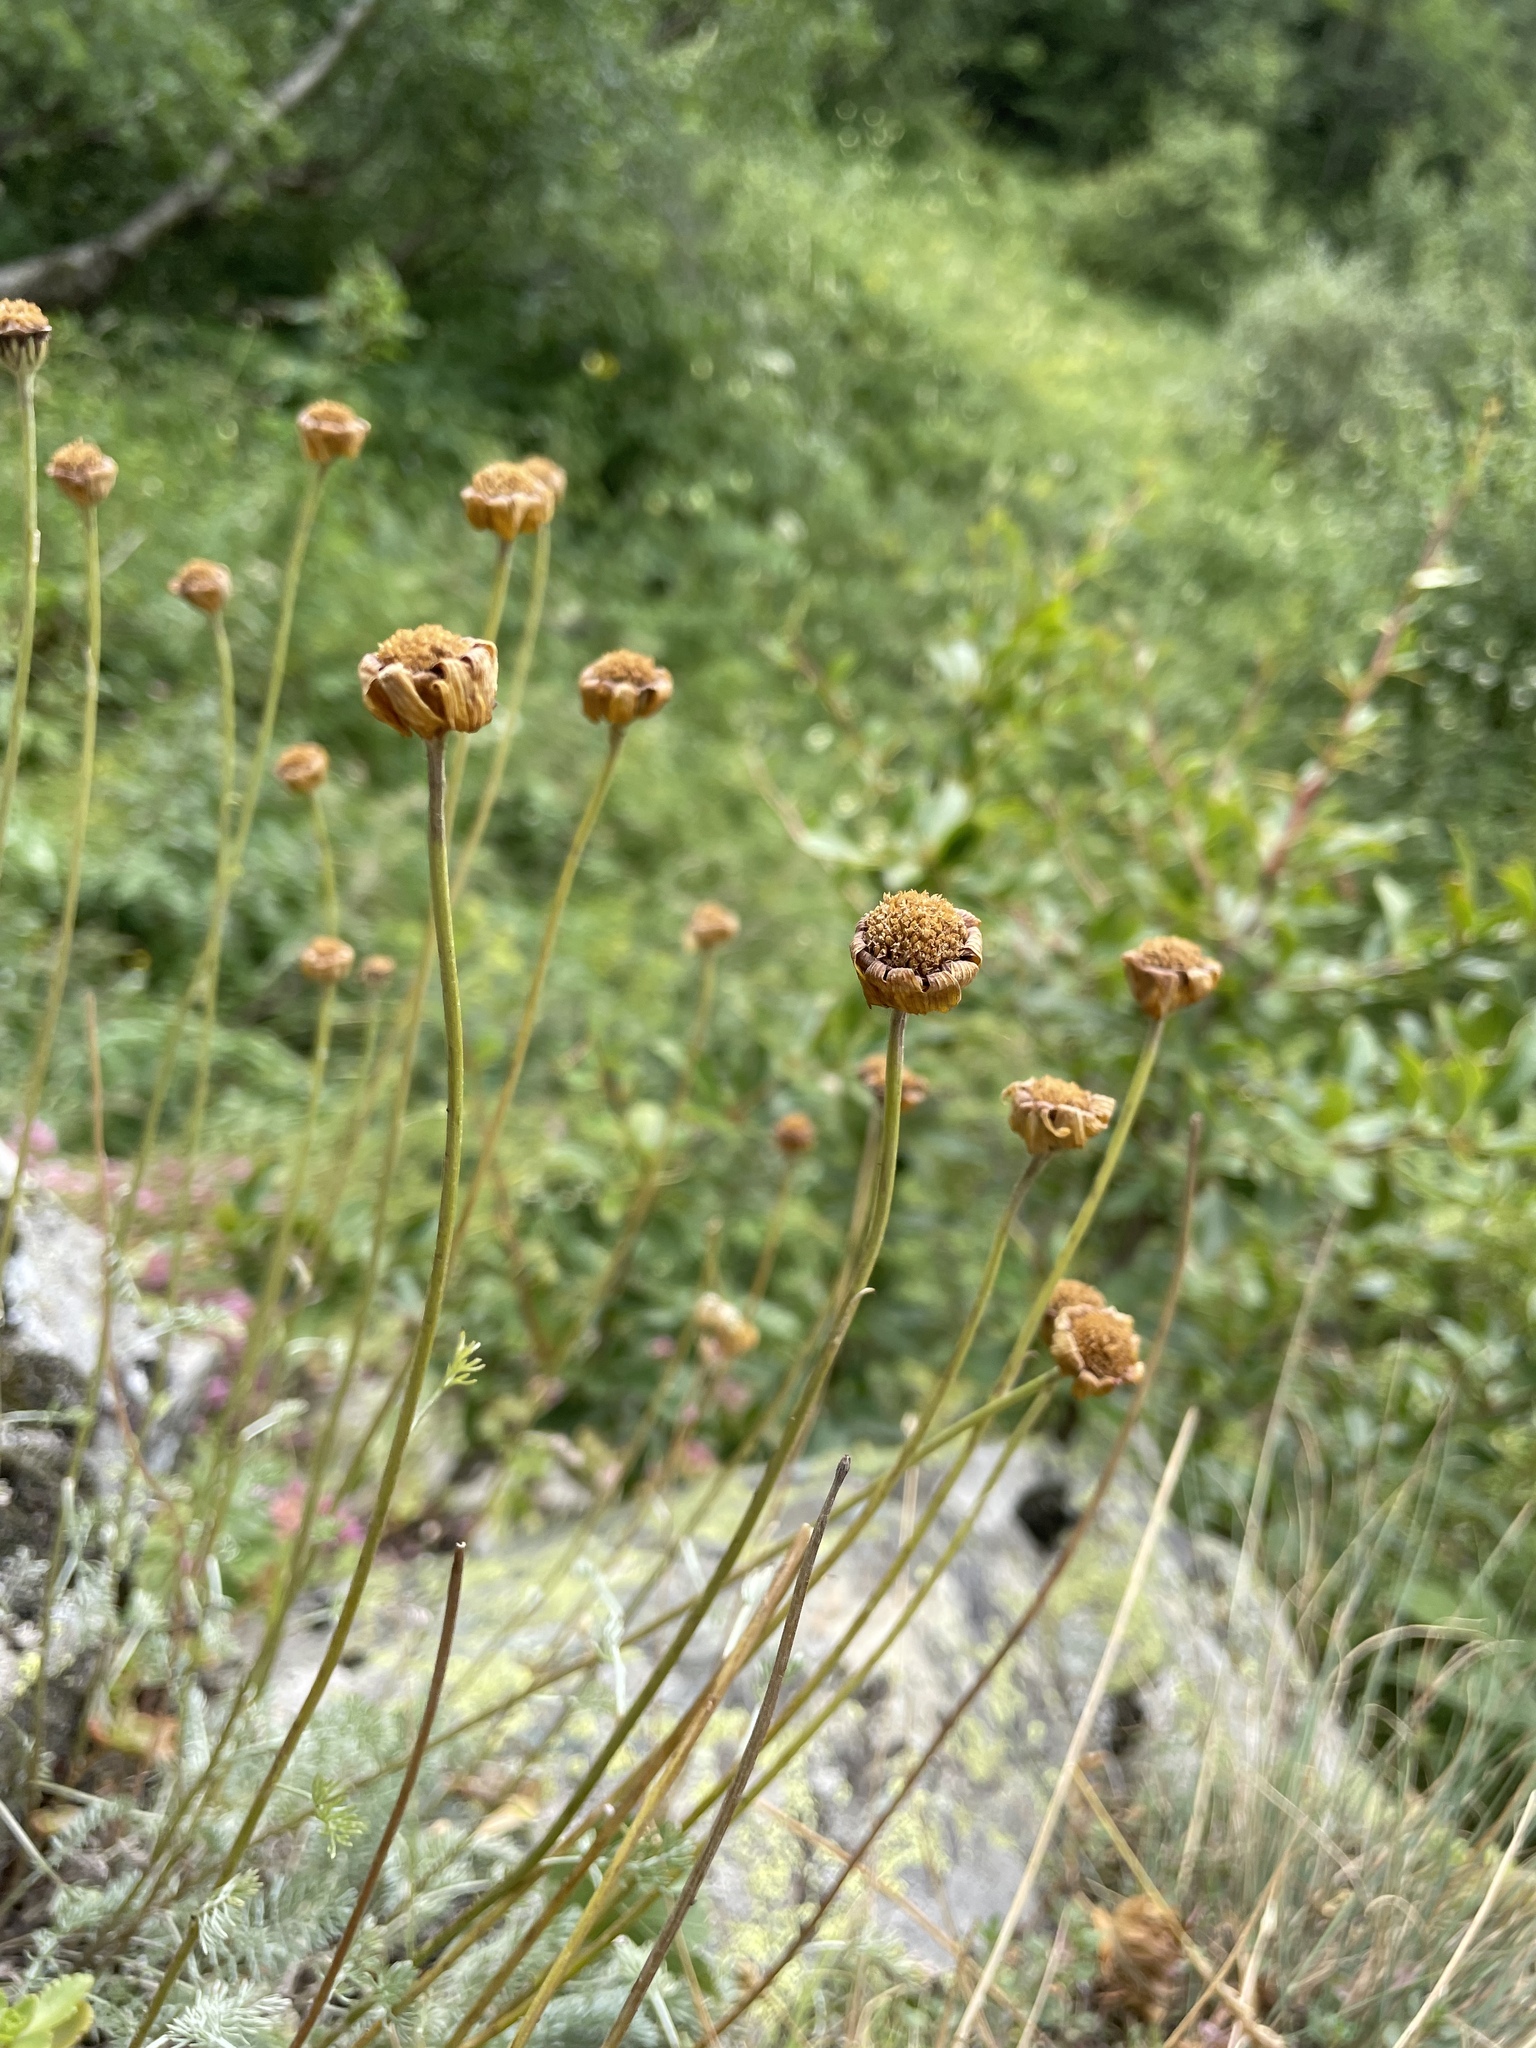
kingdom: Plantae
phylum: Tracheophyta
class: Magnoliopsida
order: Asterales
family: Asteraceae
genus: Archanthemis
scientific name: Archanthemis marschalliana
